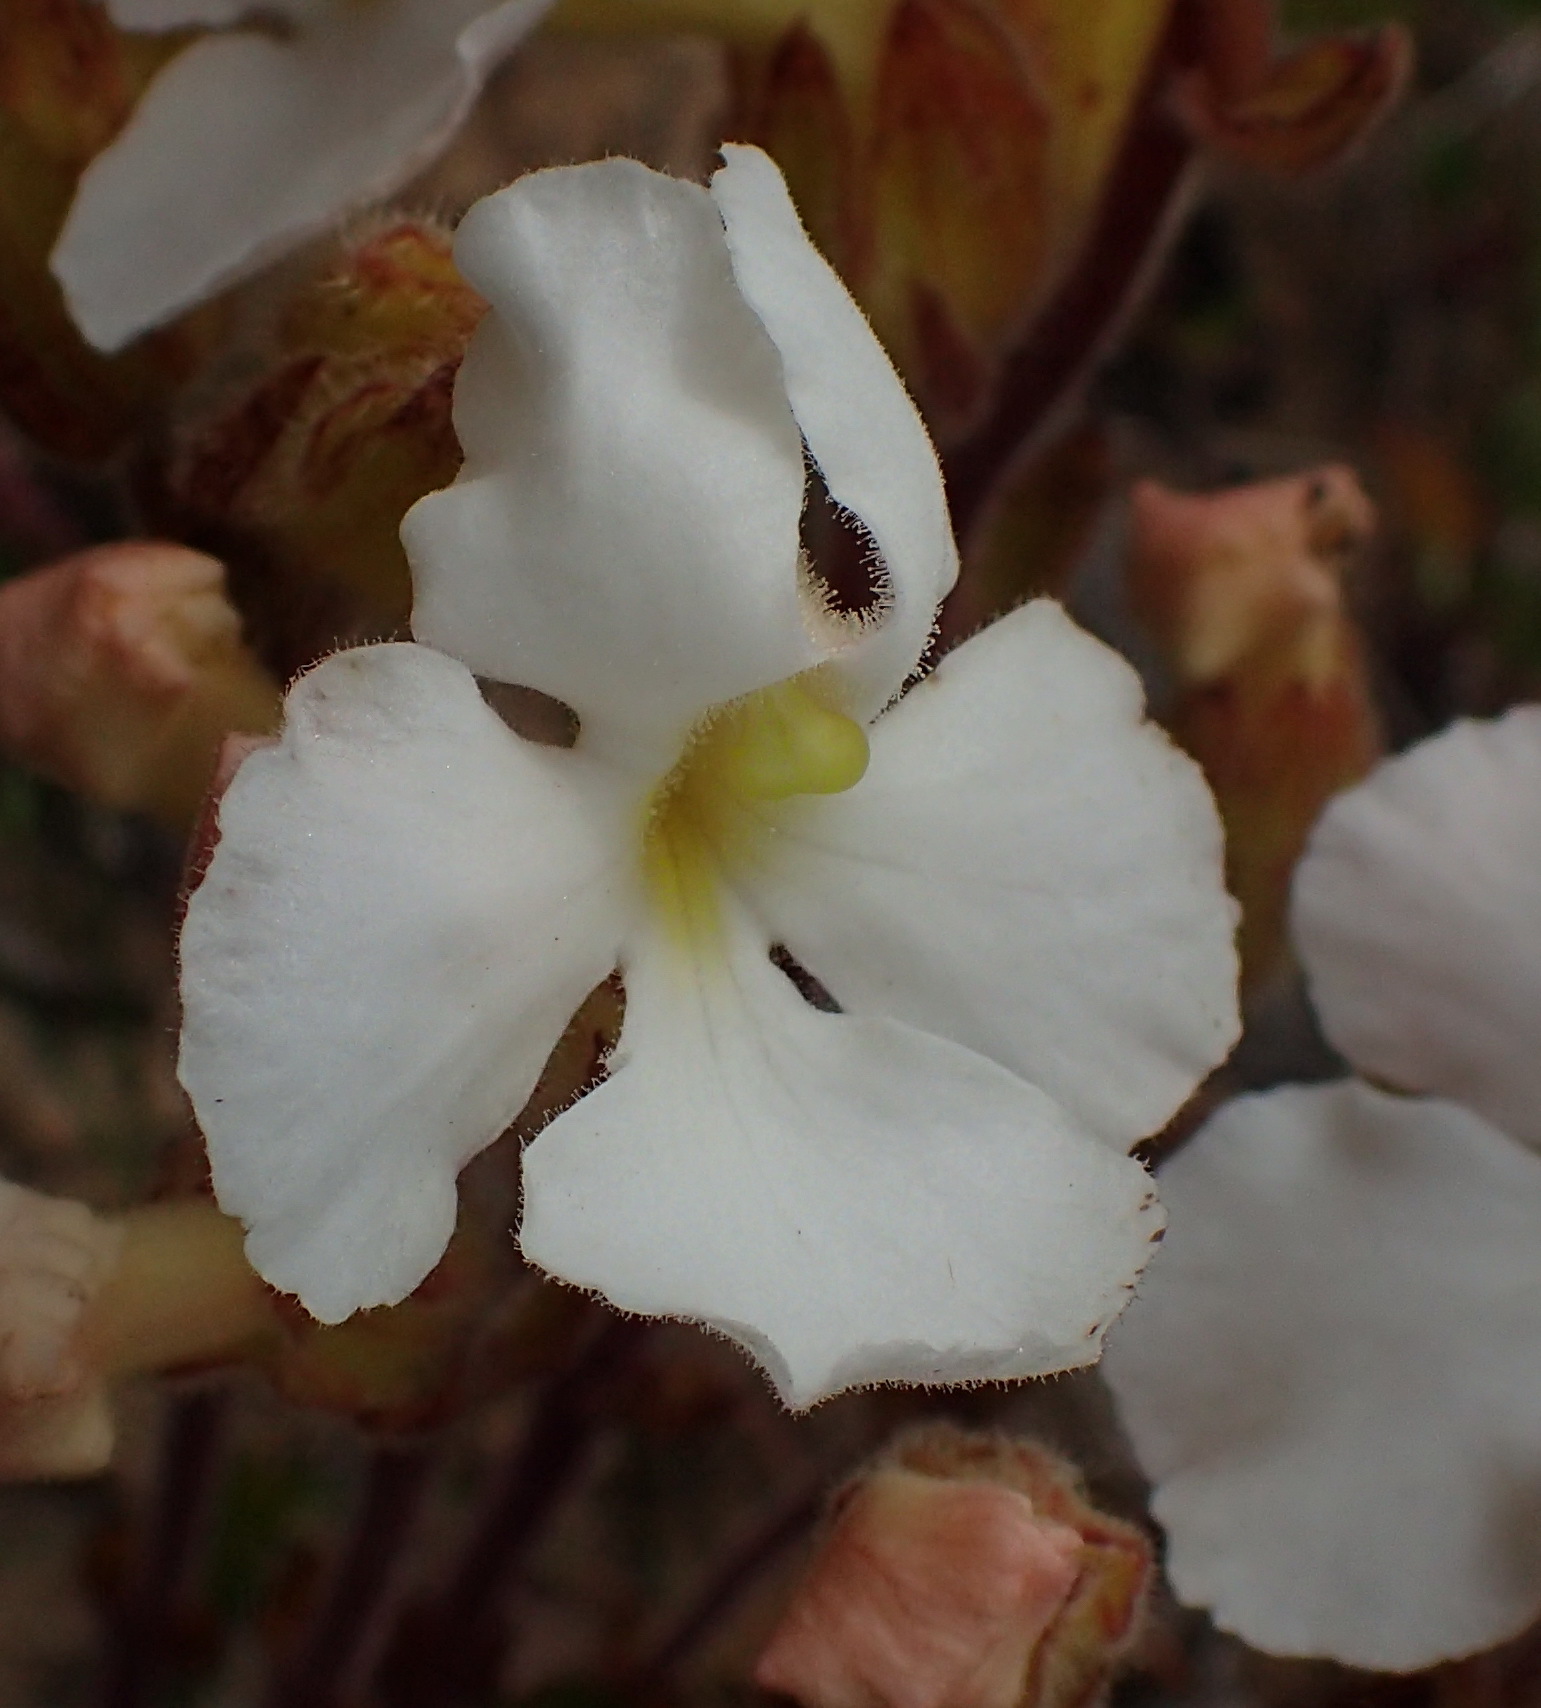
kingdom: Plantae
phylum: Tracheophyta
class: Magnoliopsida
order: Lamiales
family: Orobanchaceae
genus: Harveya
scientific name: Harveya capensis
